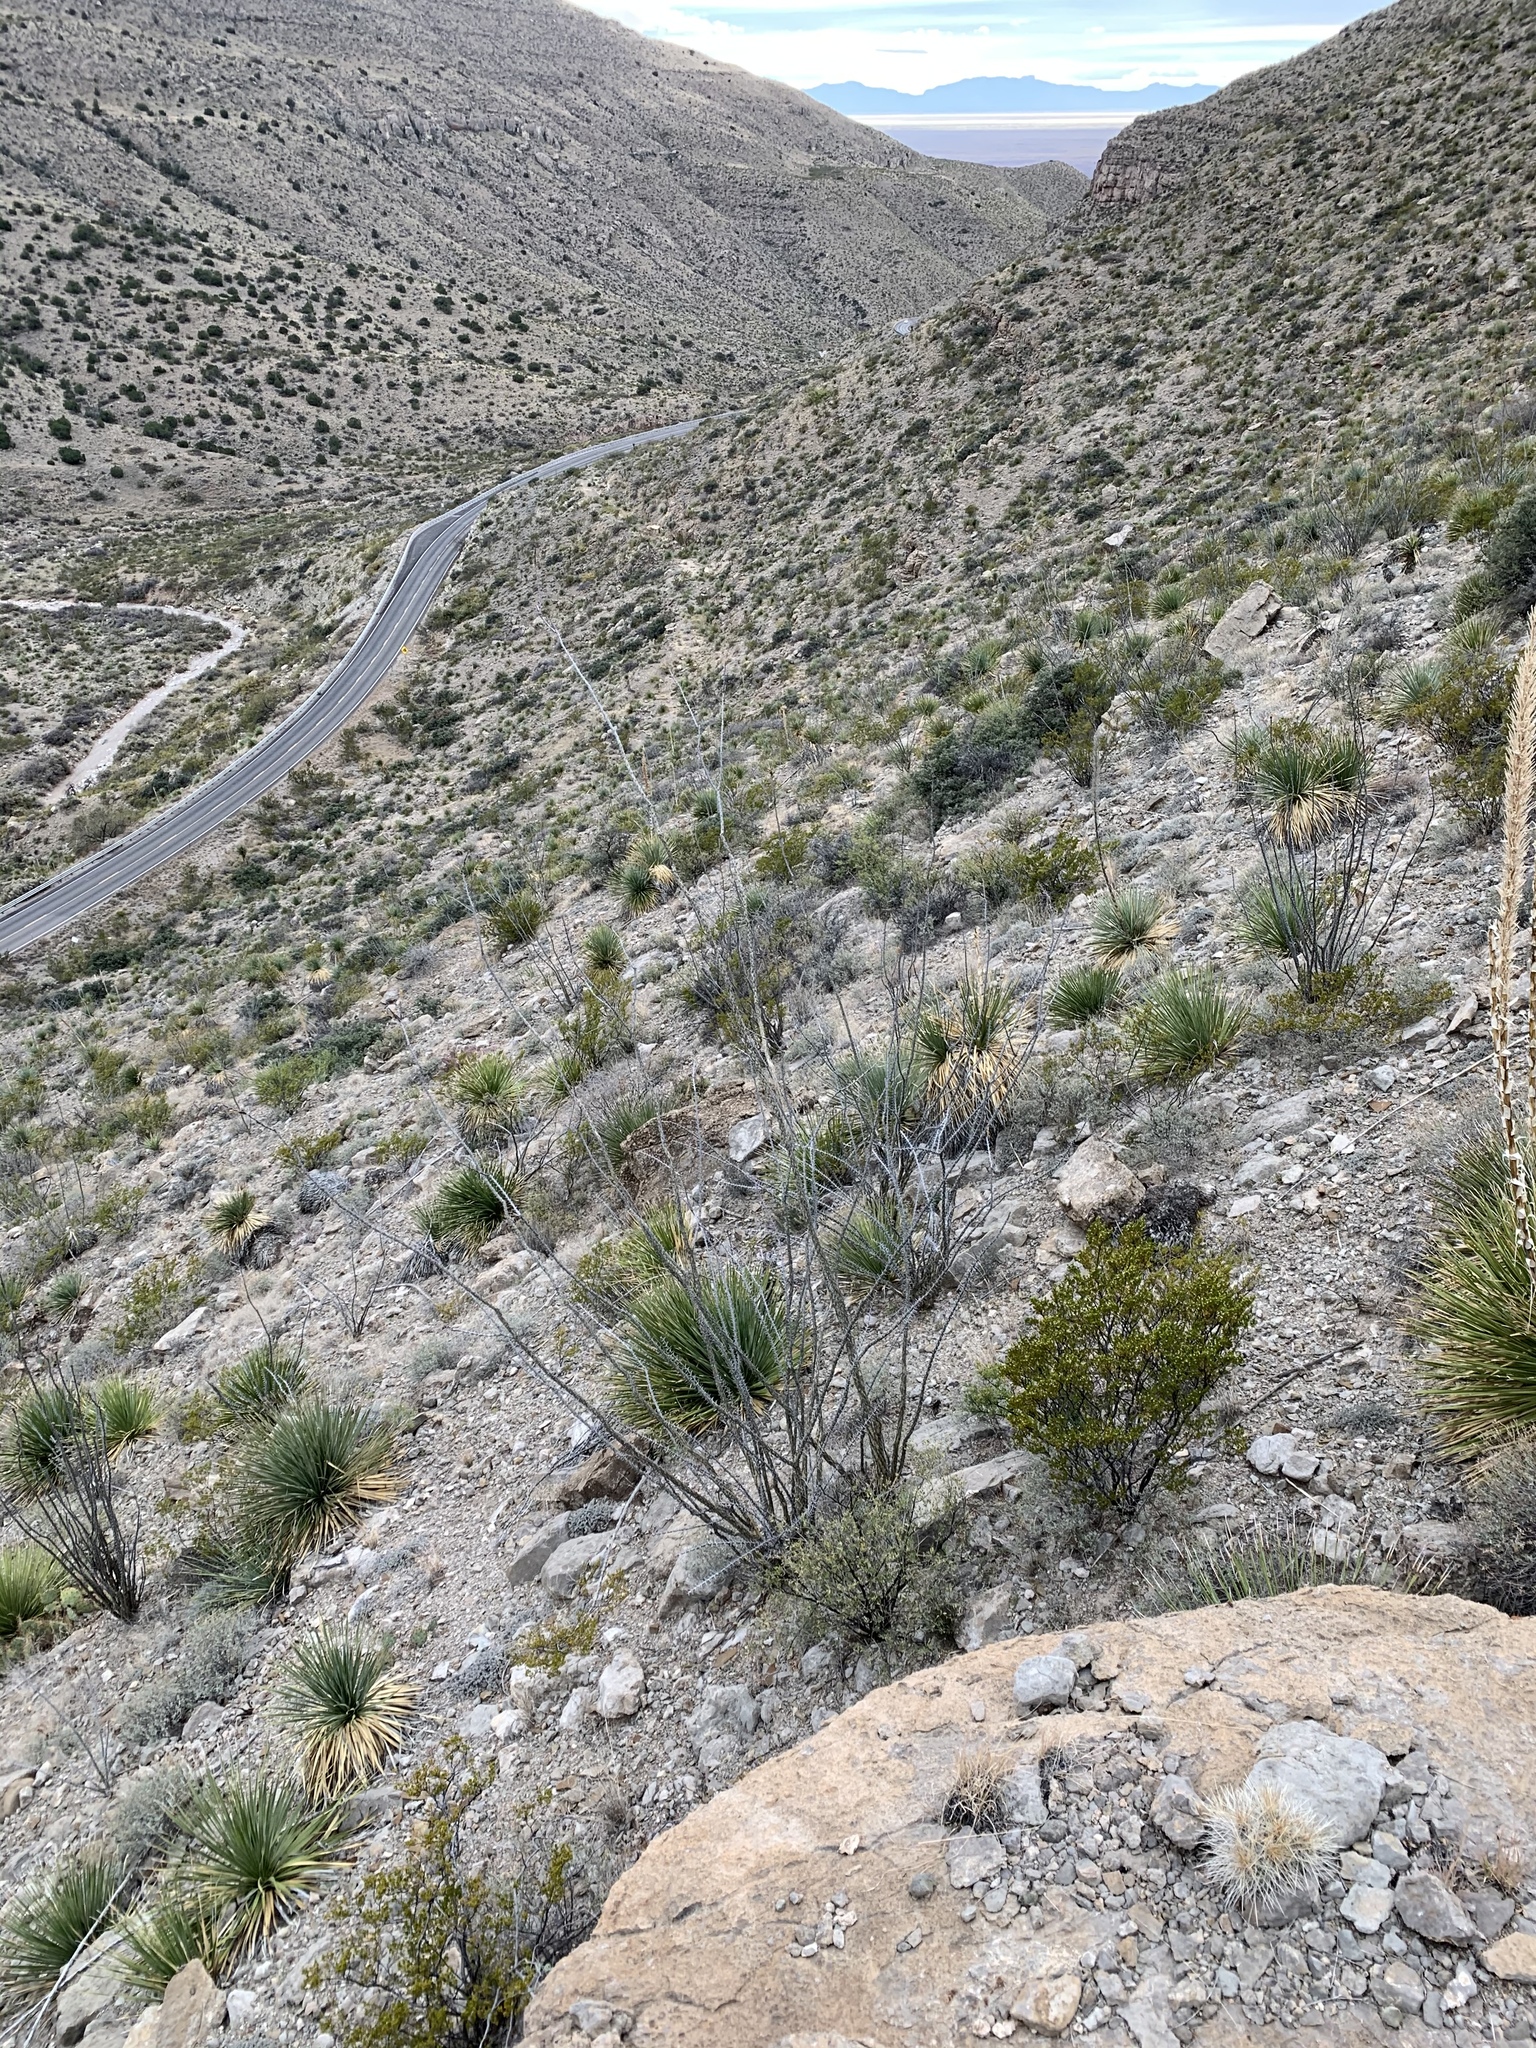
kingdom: Plantae
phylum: Tracheophyta
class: Magnoliopsida
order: Ericales
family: Fouquieriaceae
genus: Fouquieria
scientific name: Fouquieria splendens
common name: Vine-cactus
